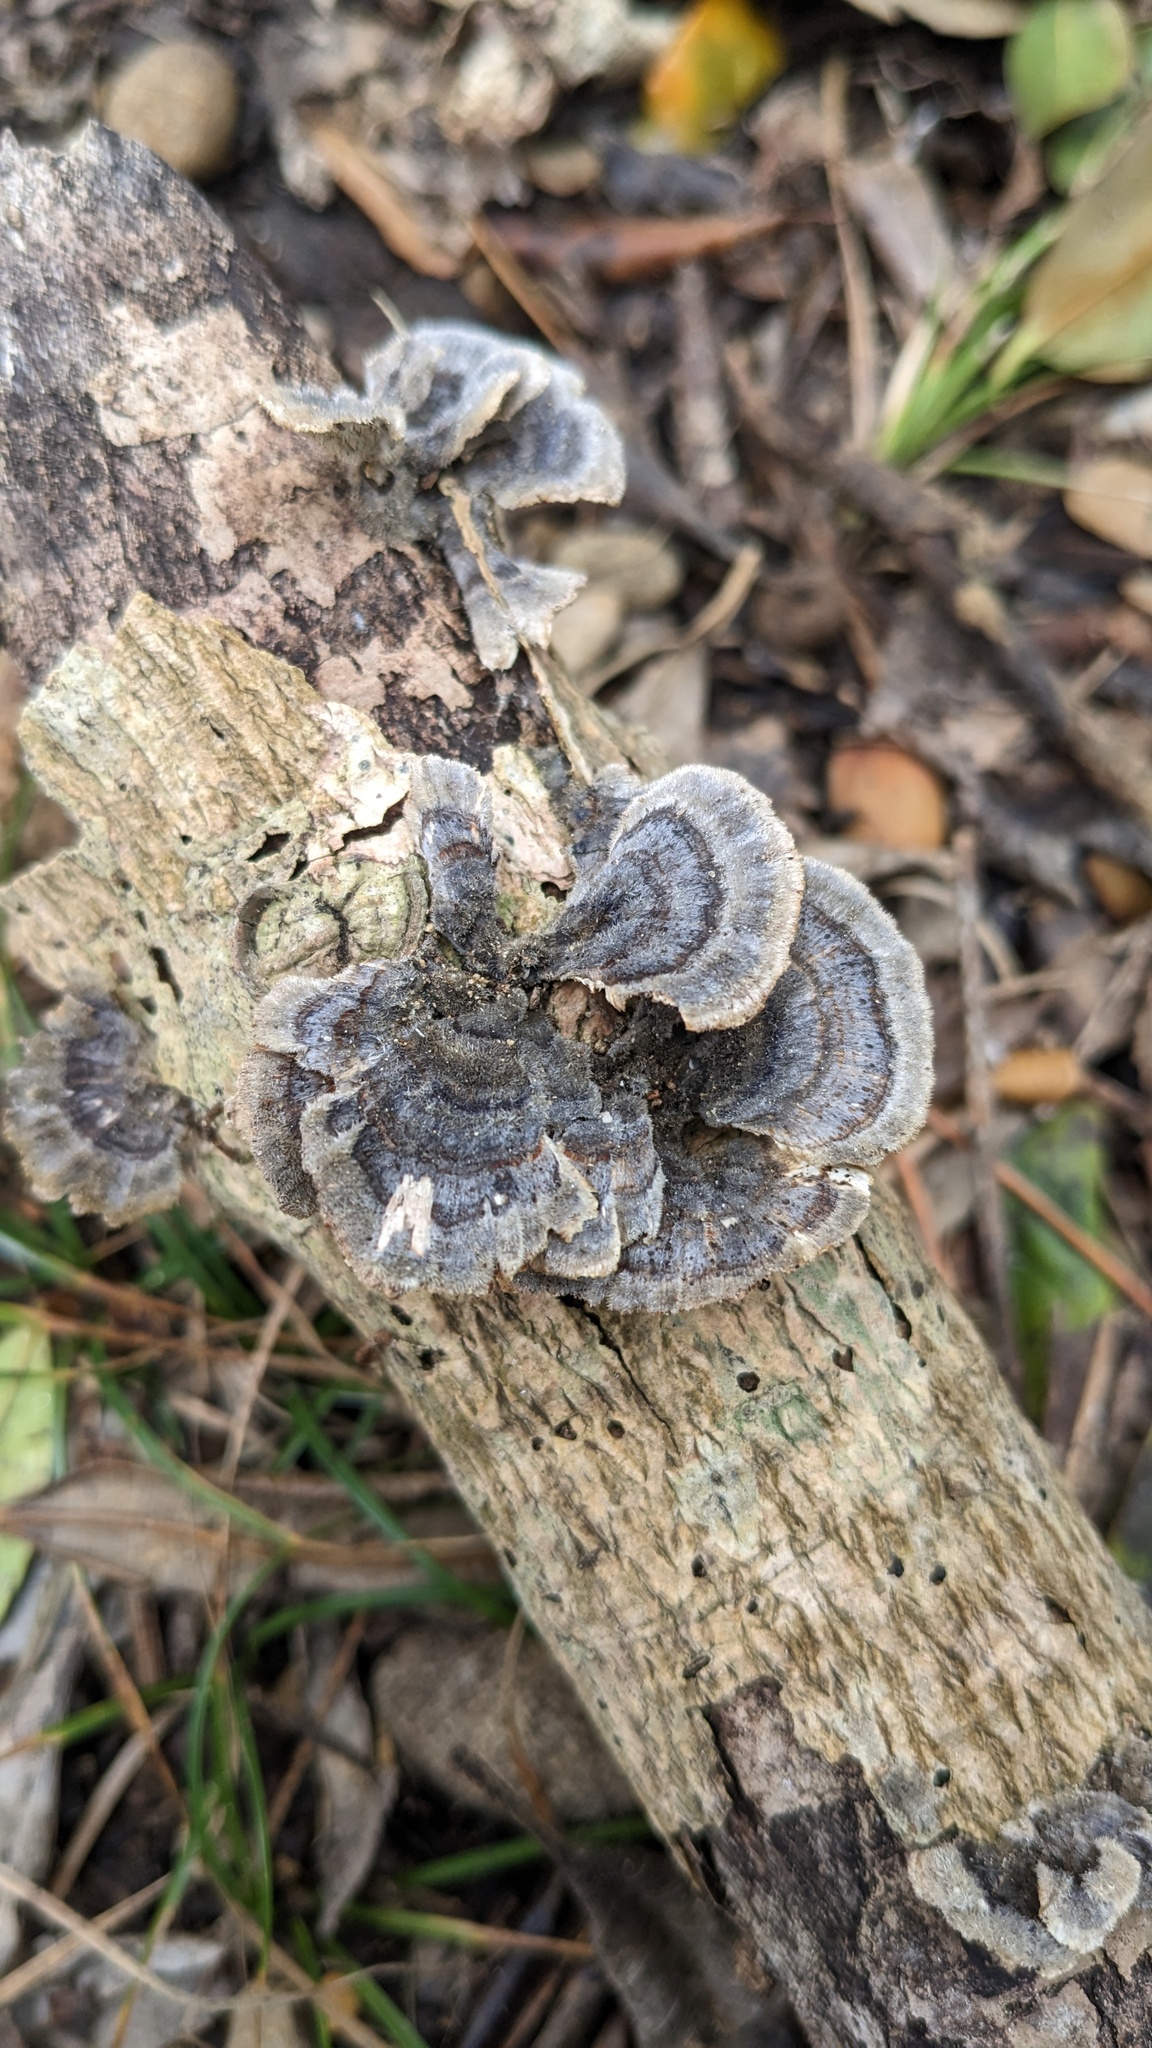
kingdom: Fungi
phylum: Basidiomycota
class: Agaricomycetes
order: Polyporales
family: Polyporaceae
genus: Trametes
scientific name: Trametes versicolor
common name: Turkeytail
